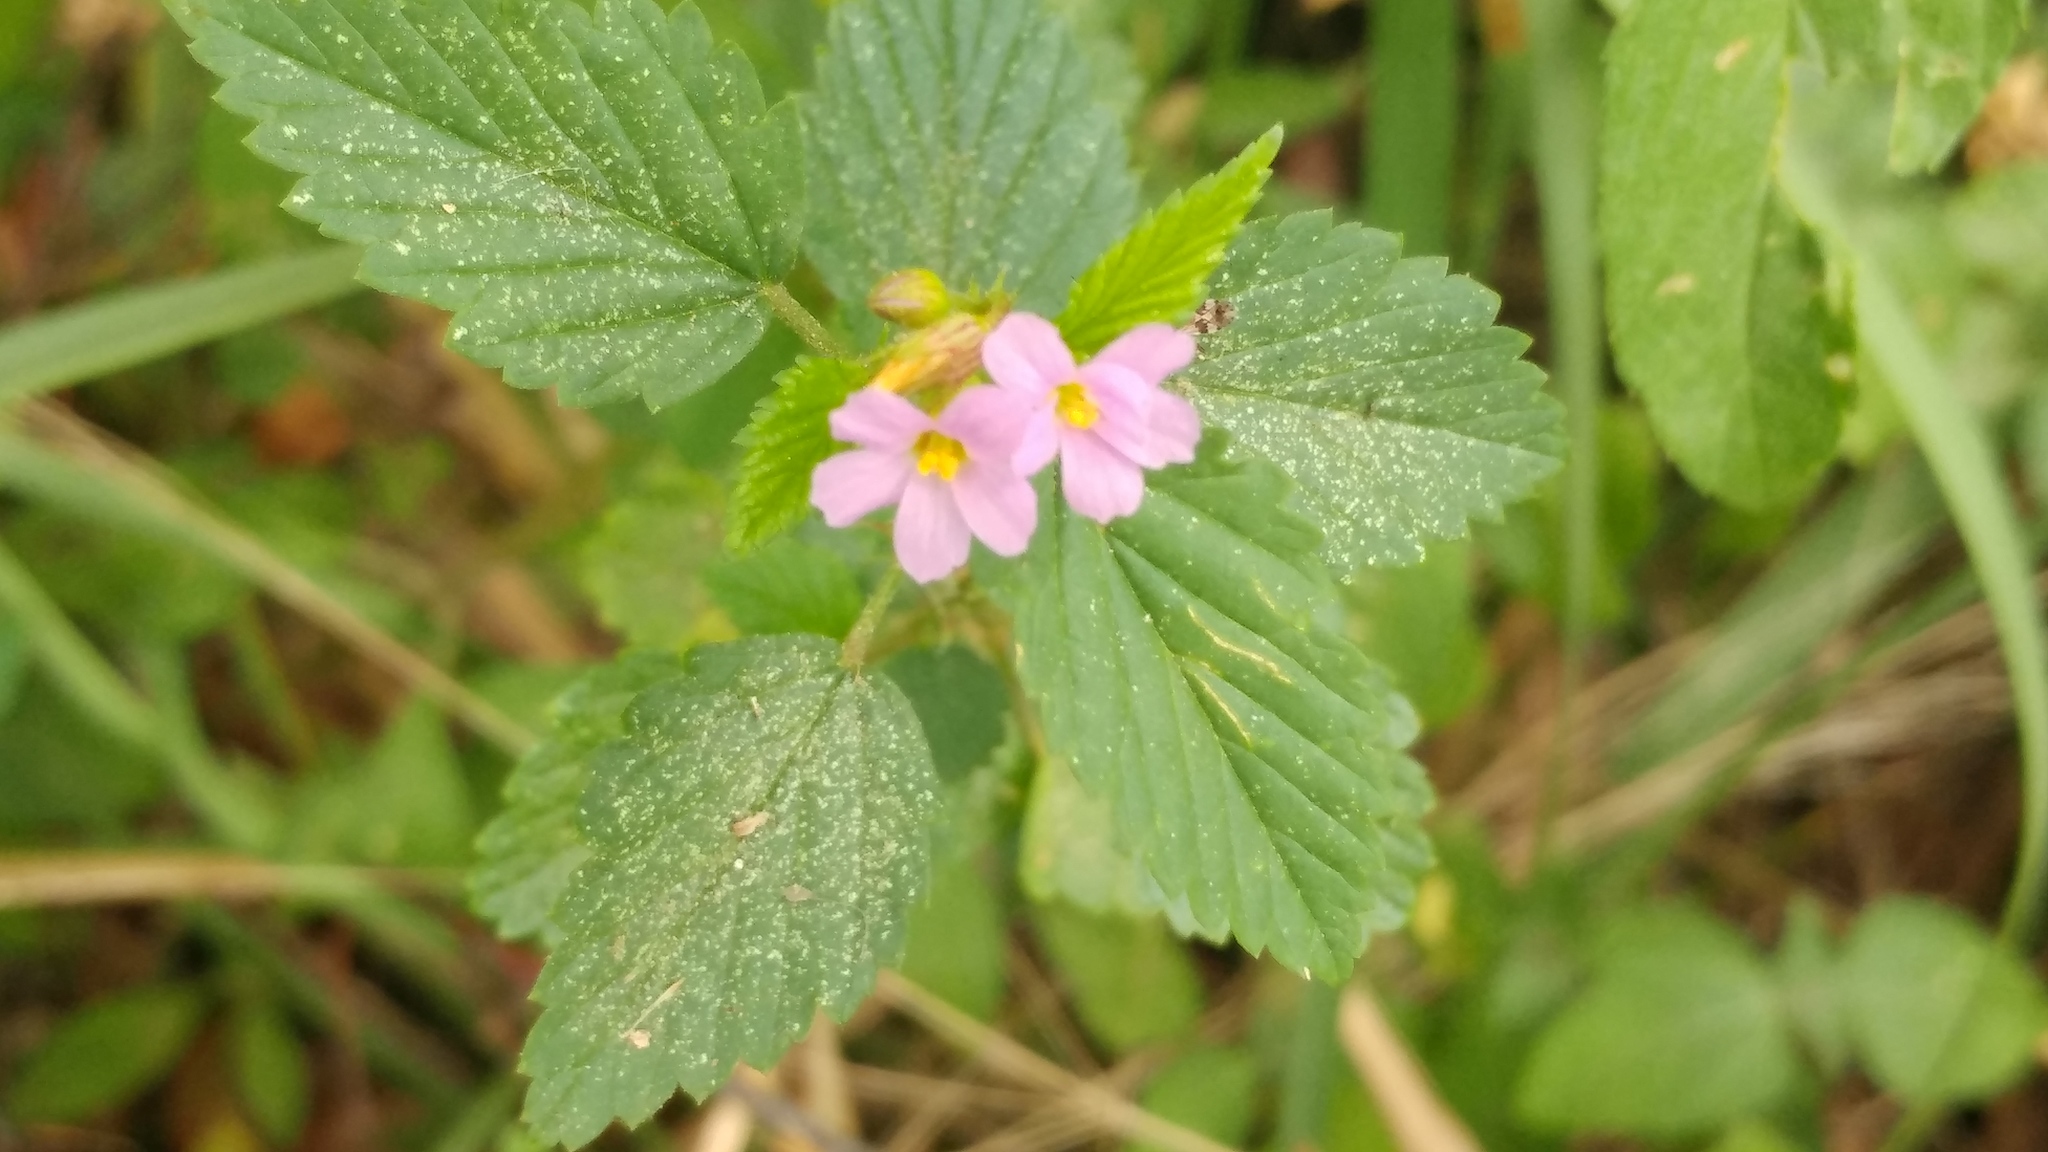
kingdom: Plantae
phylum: Tracheophyta
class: Magnoliopsida
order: Malvales
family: Malvaceae
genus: Melochia
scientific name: Melochia pyramidata
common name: Pyramidflower
